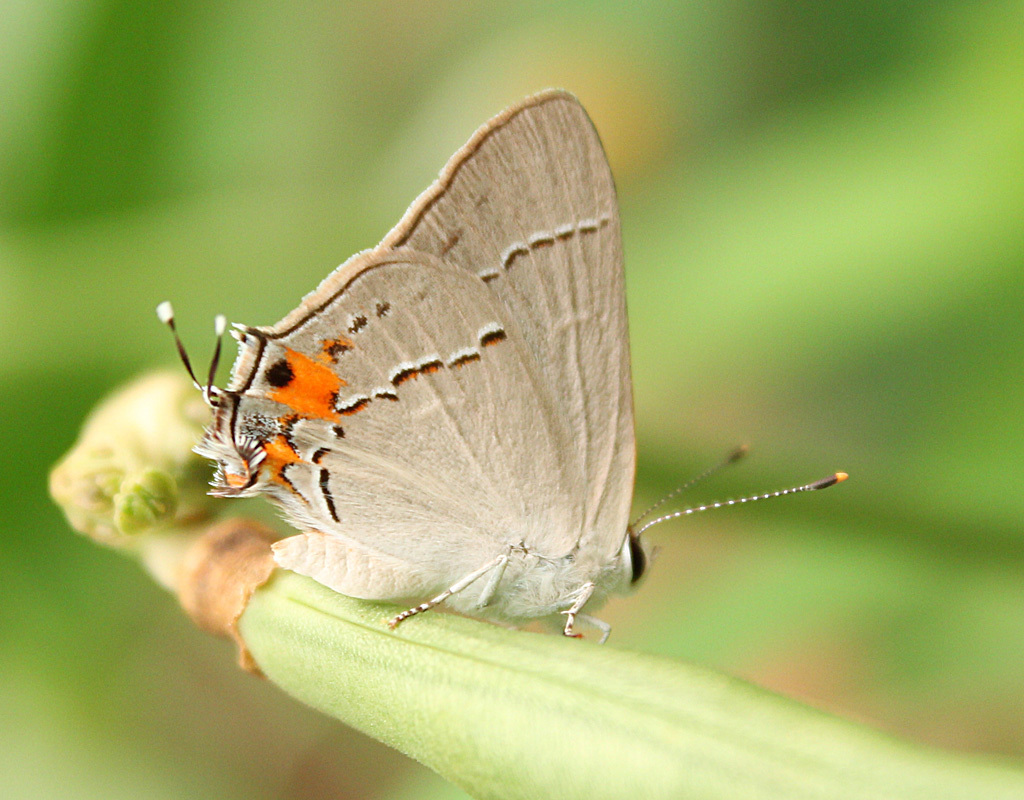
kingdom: Animalia
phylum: Arthropoda
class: Insecta
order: Lepidoptera
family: Lycaenidae
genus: Strymon
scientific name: Strymon melinus
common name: Gray hairstreak
